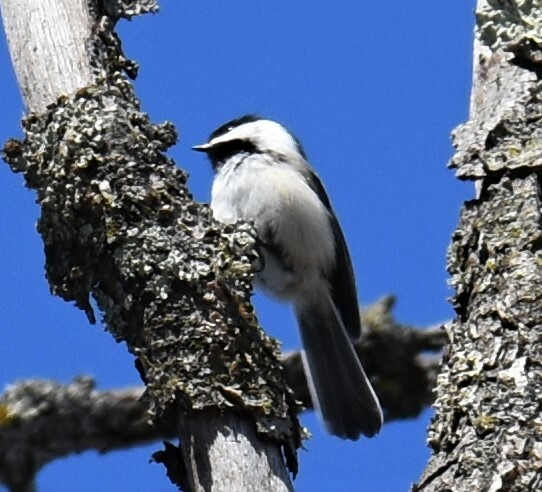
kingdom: Animalia
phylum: Chordata
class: Aves
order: Passeriformes
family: Paridae
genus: Poecile
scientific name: Poecile atricapillus
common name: Black-capped chickadee
